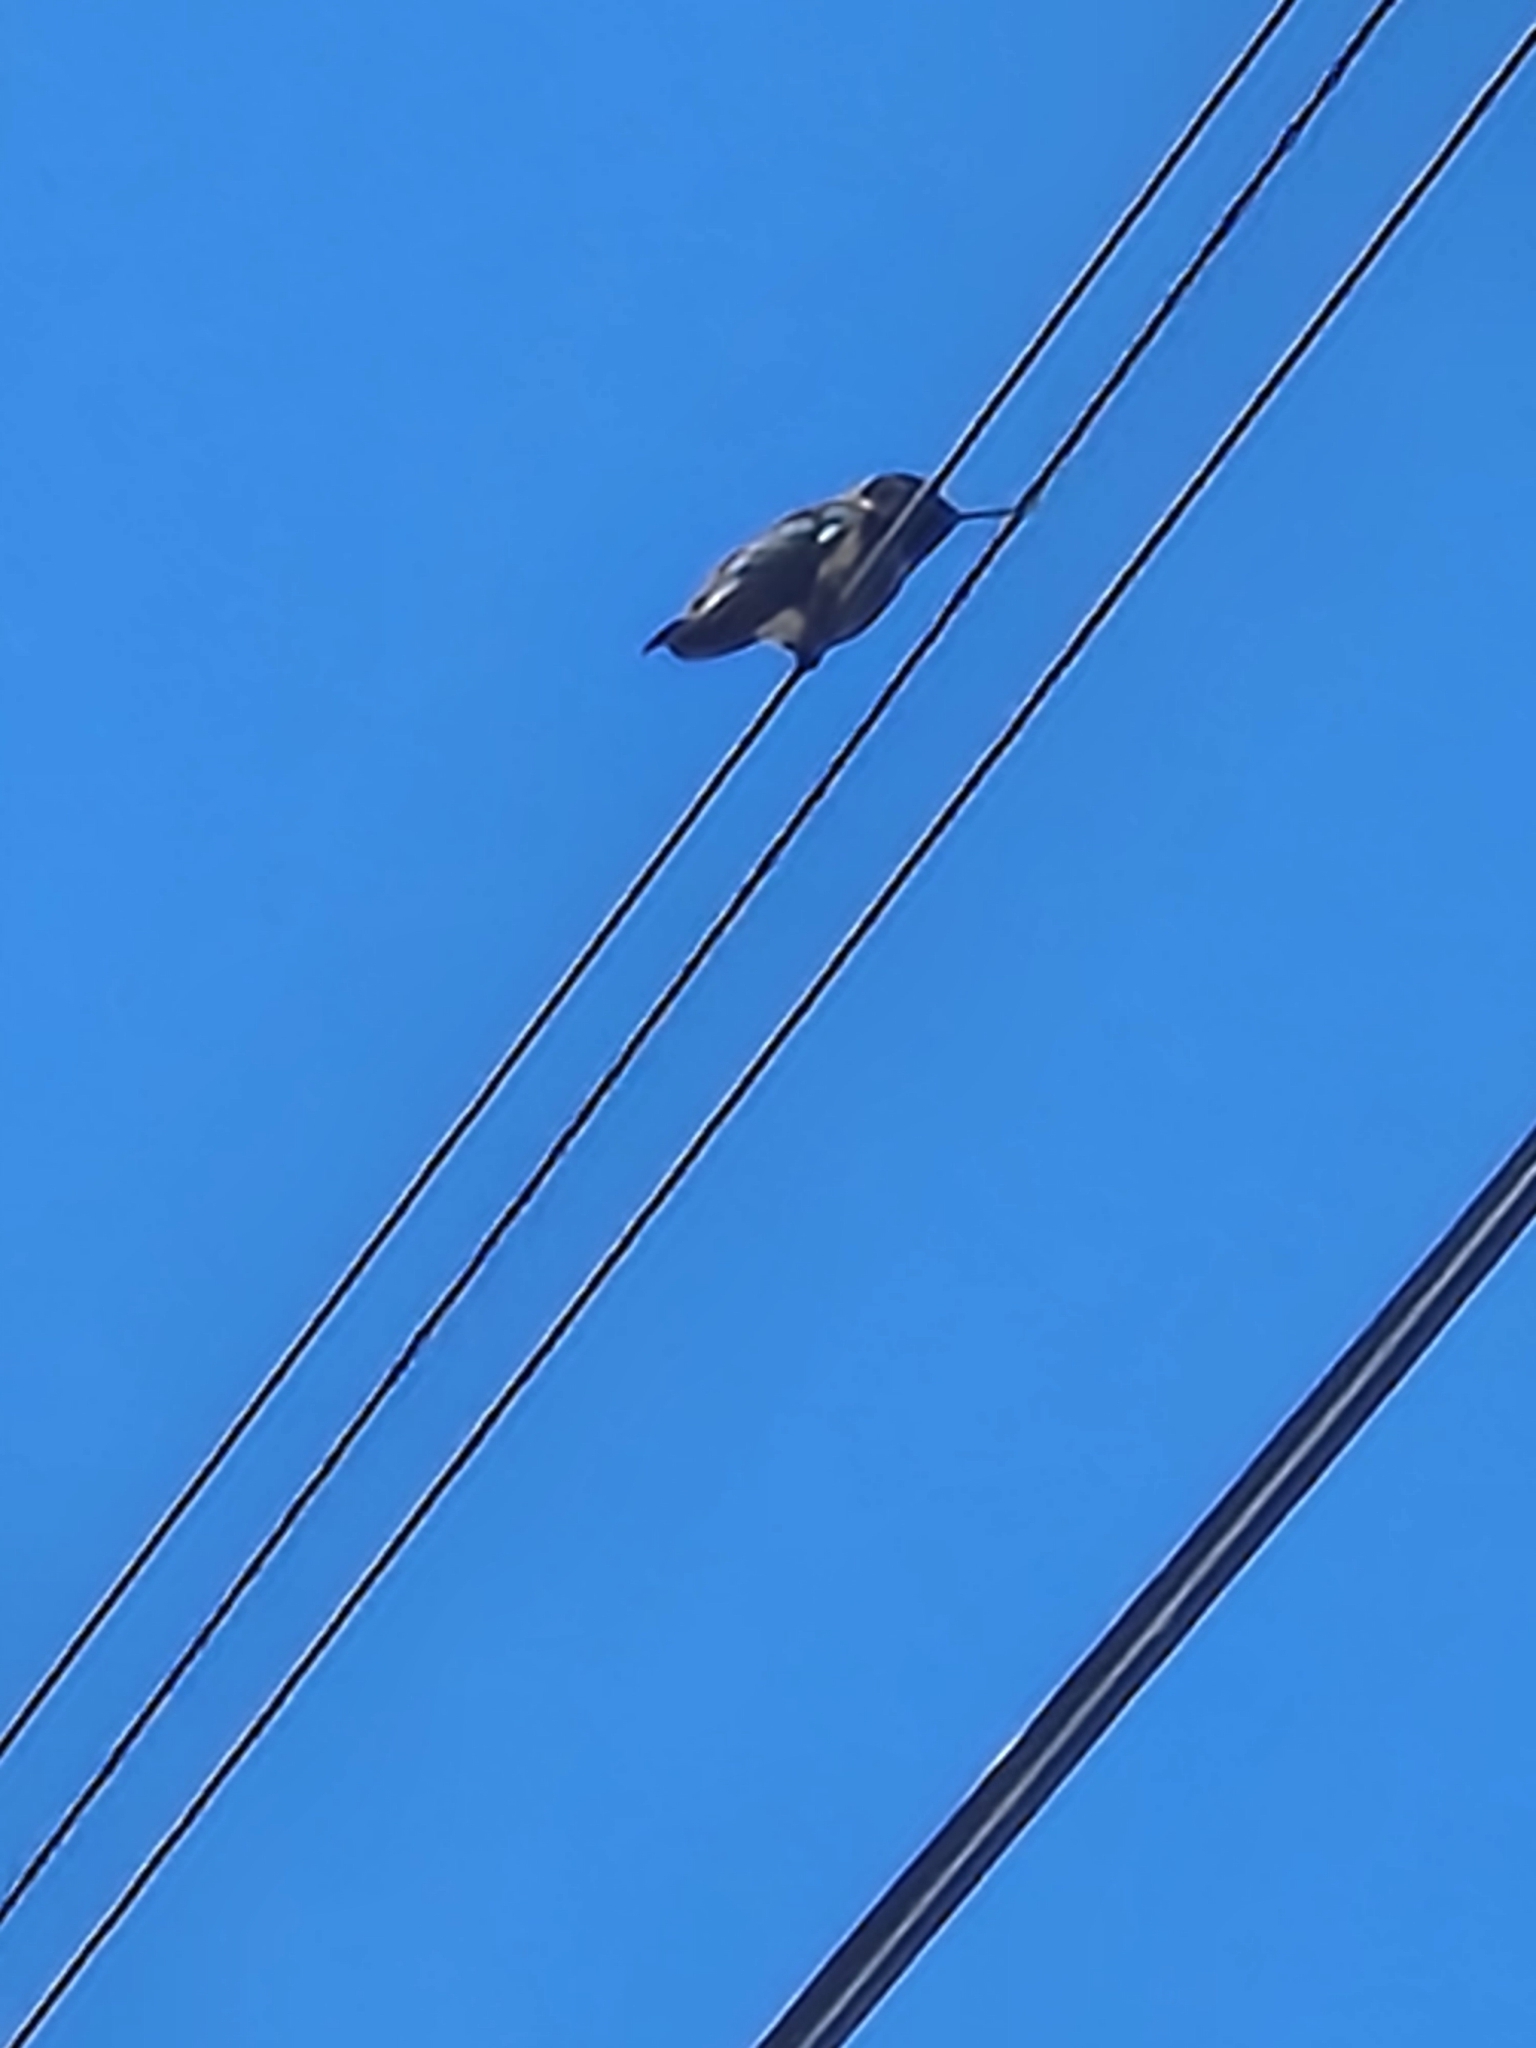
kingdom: Animalia
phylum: Chordata
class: Aves
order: Apodiformes
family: Trochilidae
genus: Calypte
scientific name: Calypte anna
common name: Anna's hummingbird
